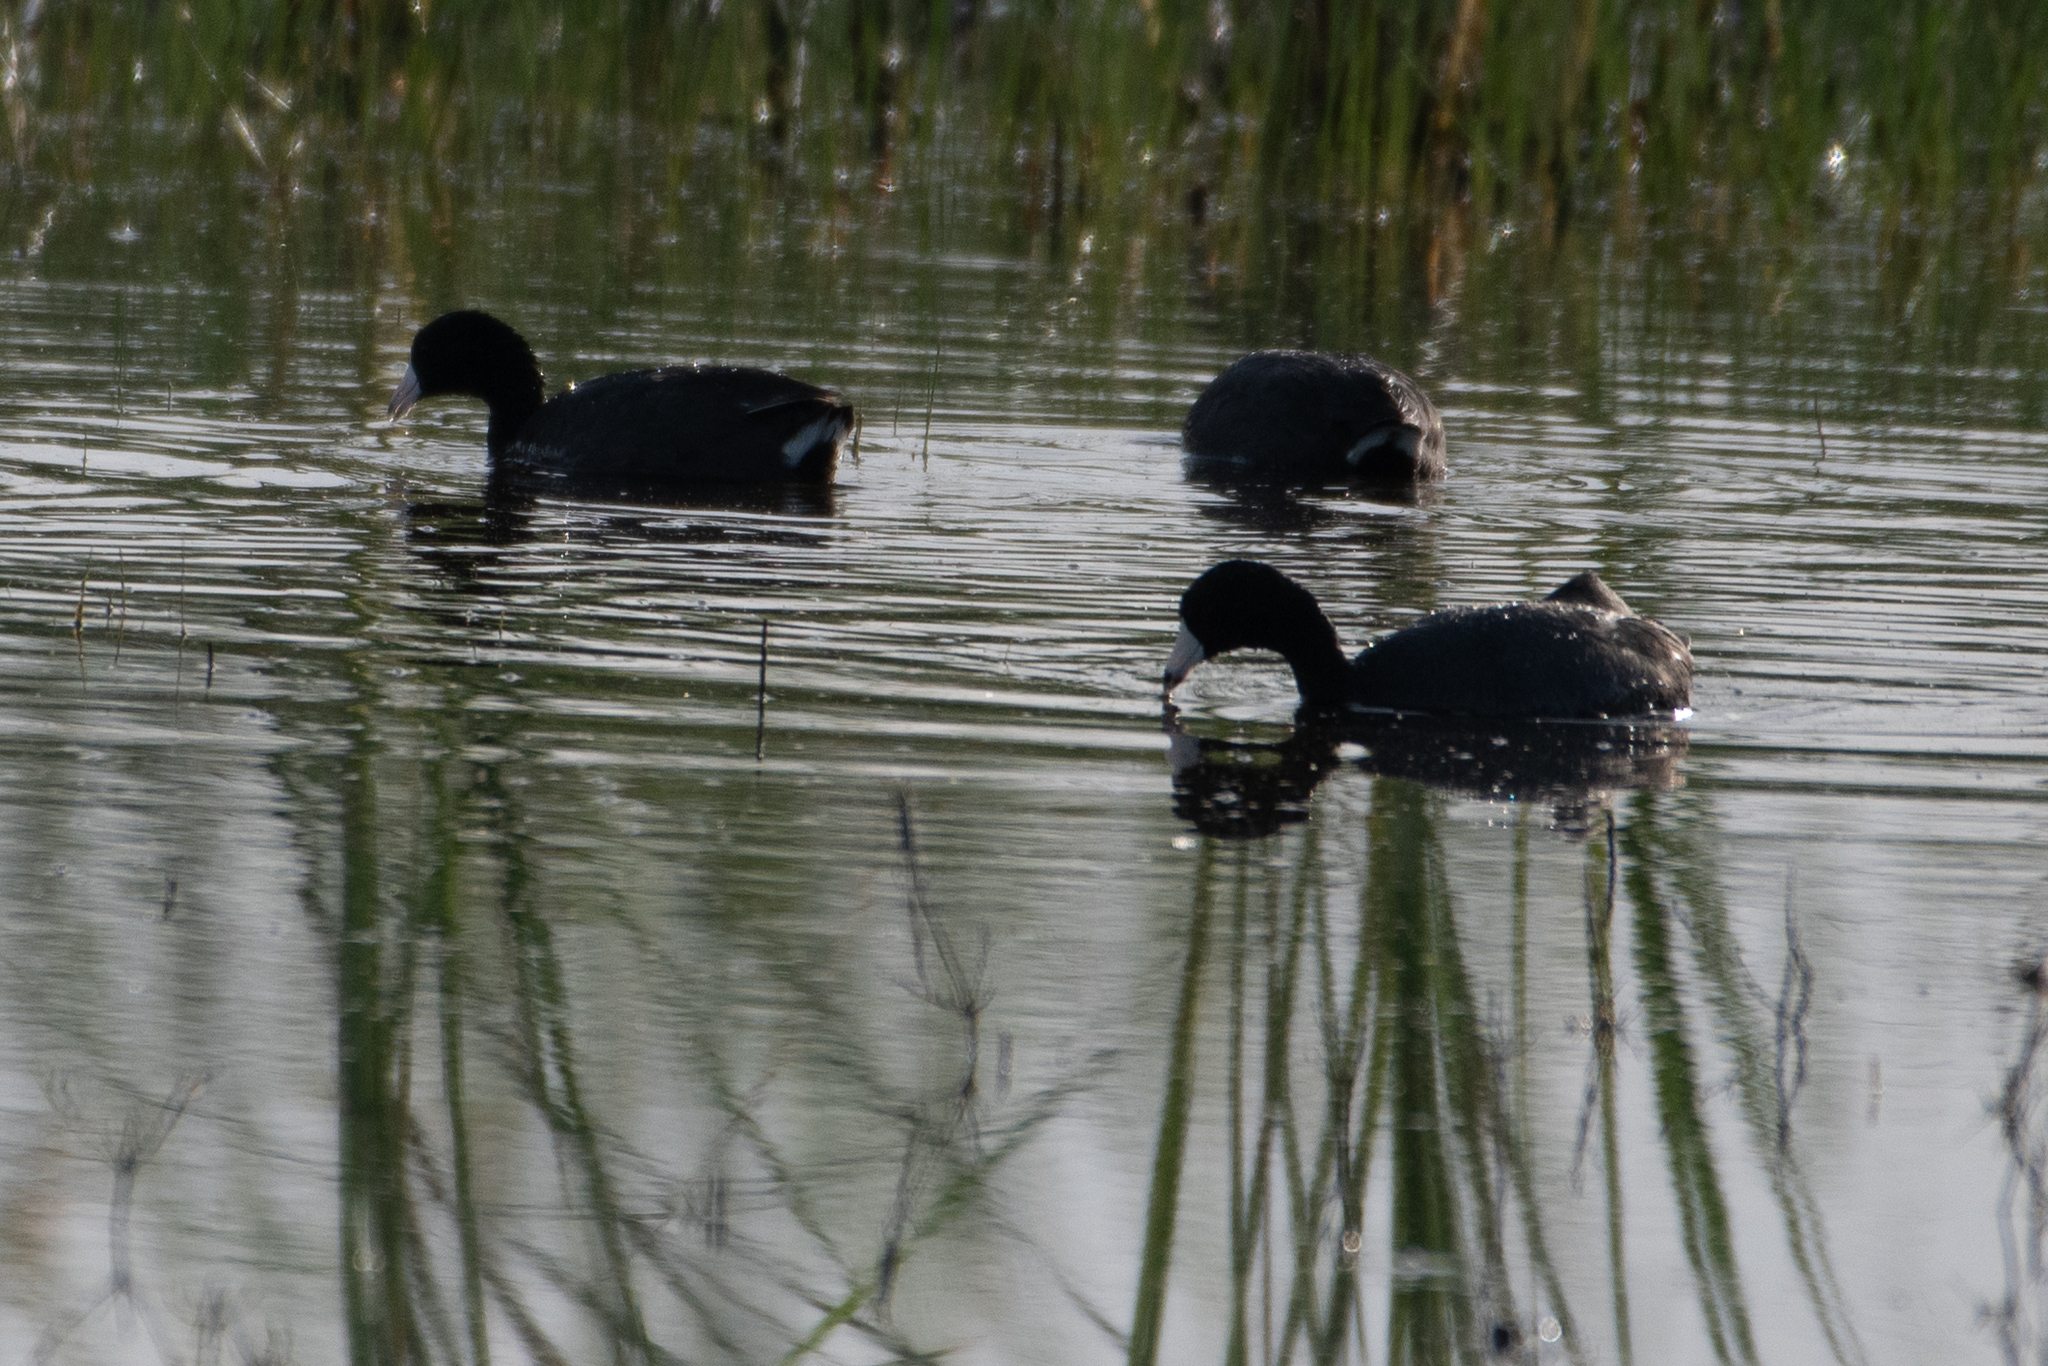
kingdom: Animalia
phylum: Chordata
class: Aves
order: Gruiformes
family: Rallidae
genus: Fulica
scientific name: Fulica americana
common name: American coot
